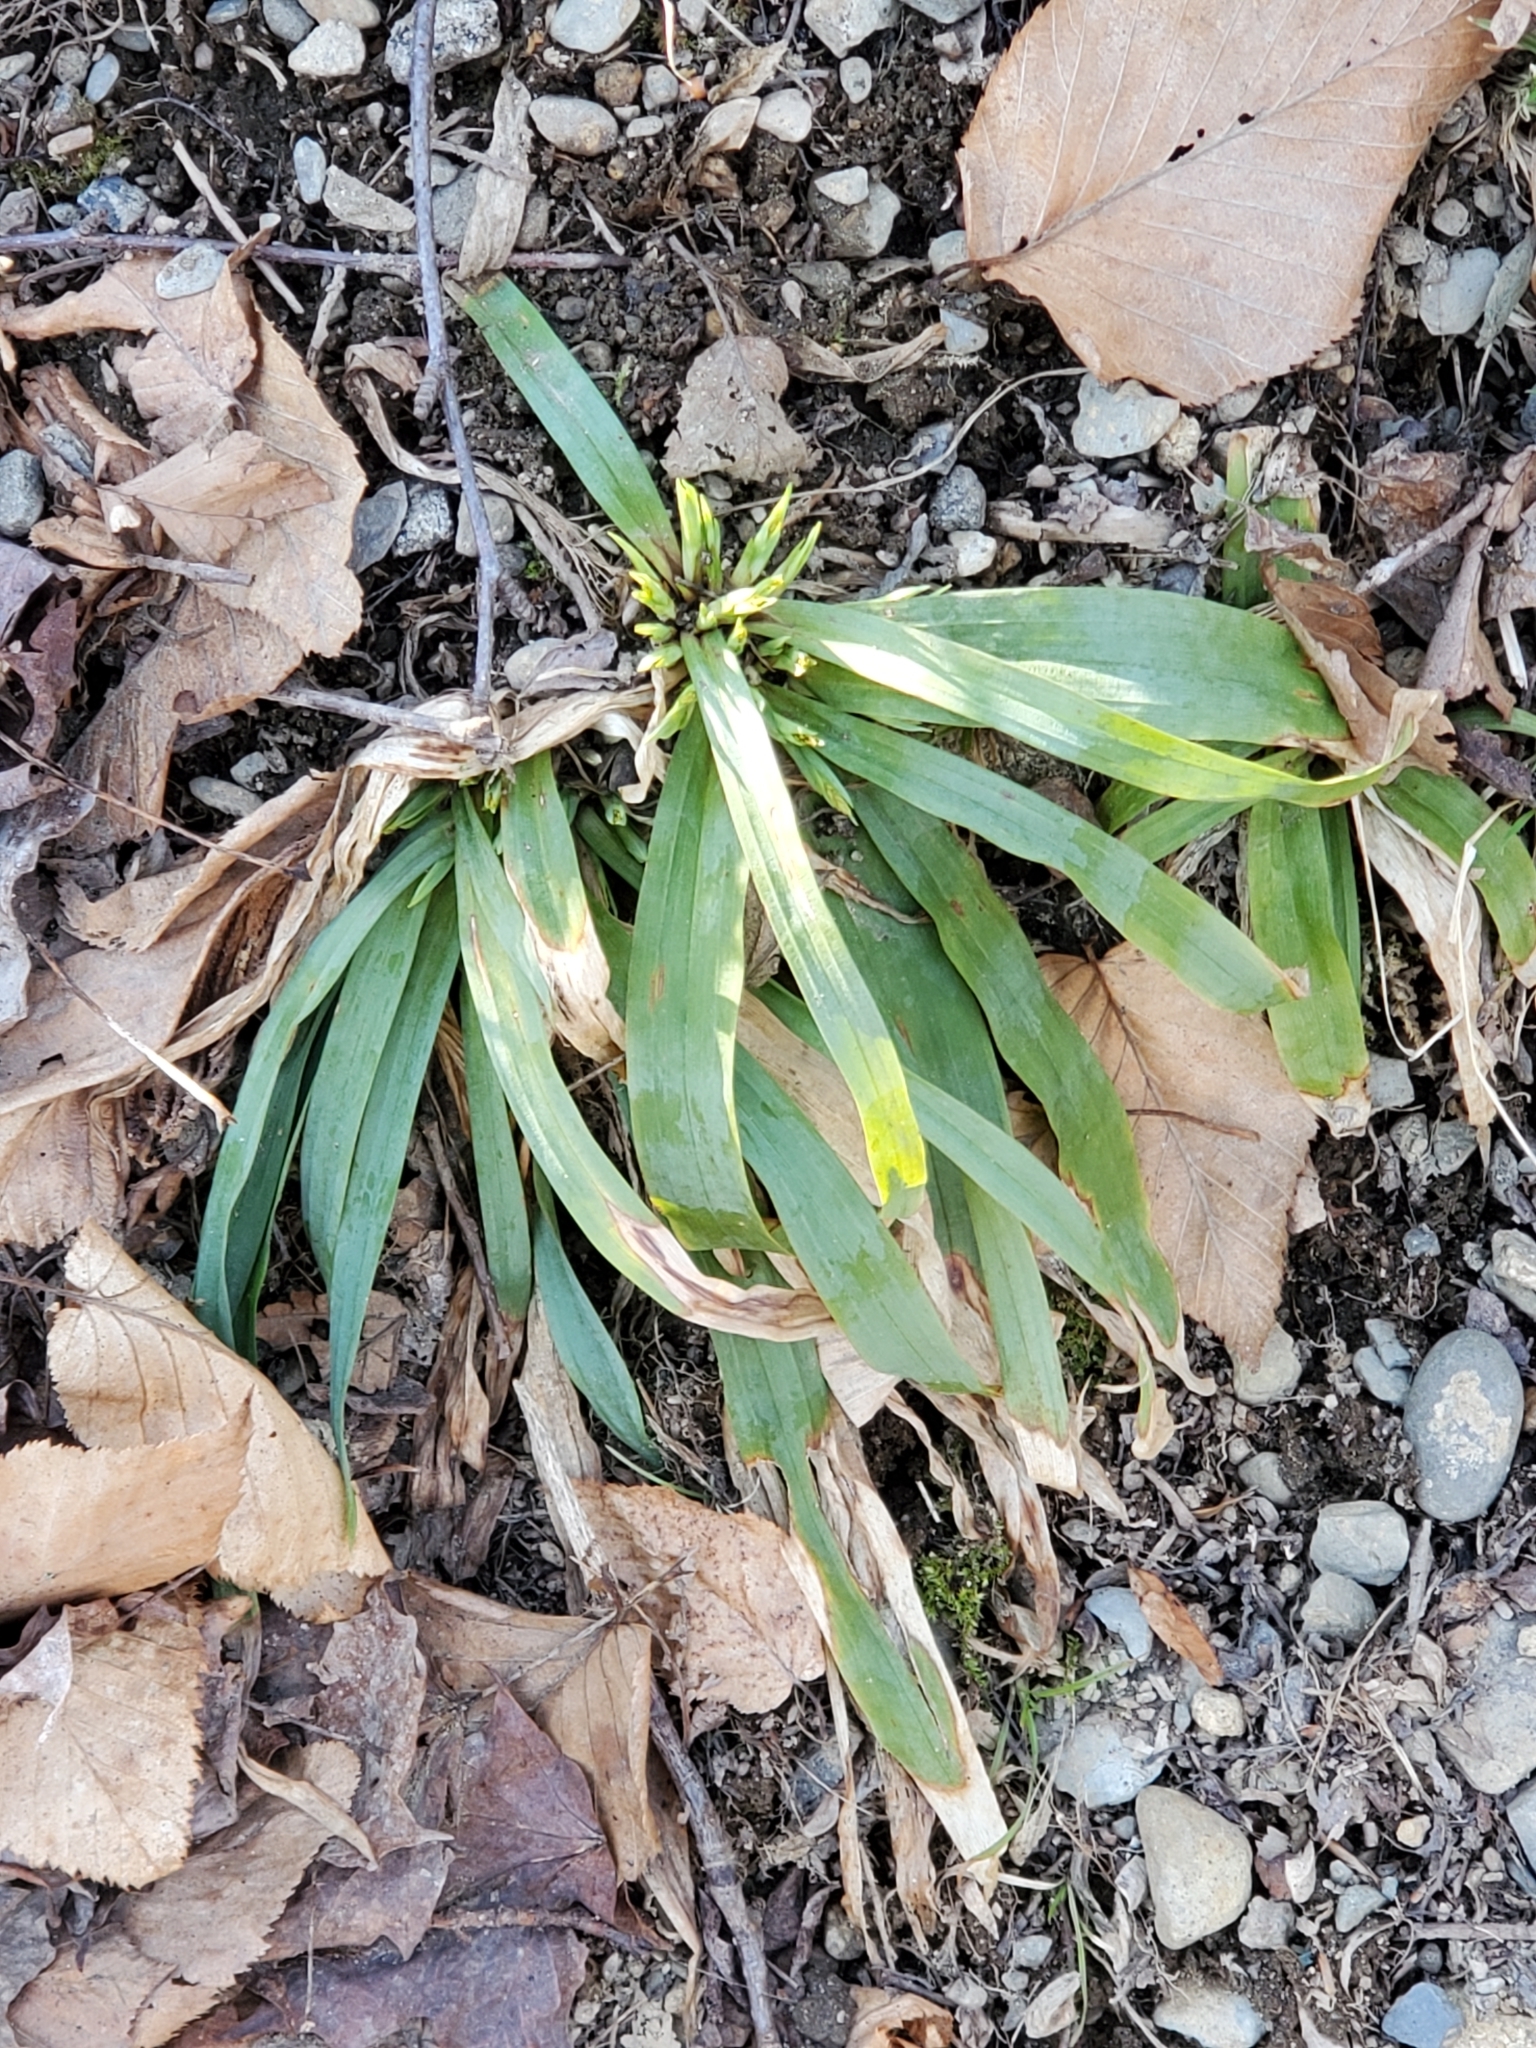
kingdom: Plantae
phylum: Tracheophyta
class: Liliopsida
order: Poales
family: Cyperaceae
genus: Carex
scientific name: Carex platyphylla
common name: Broad-leaved sedge
